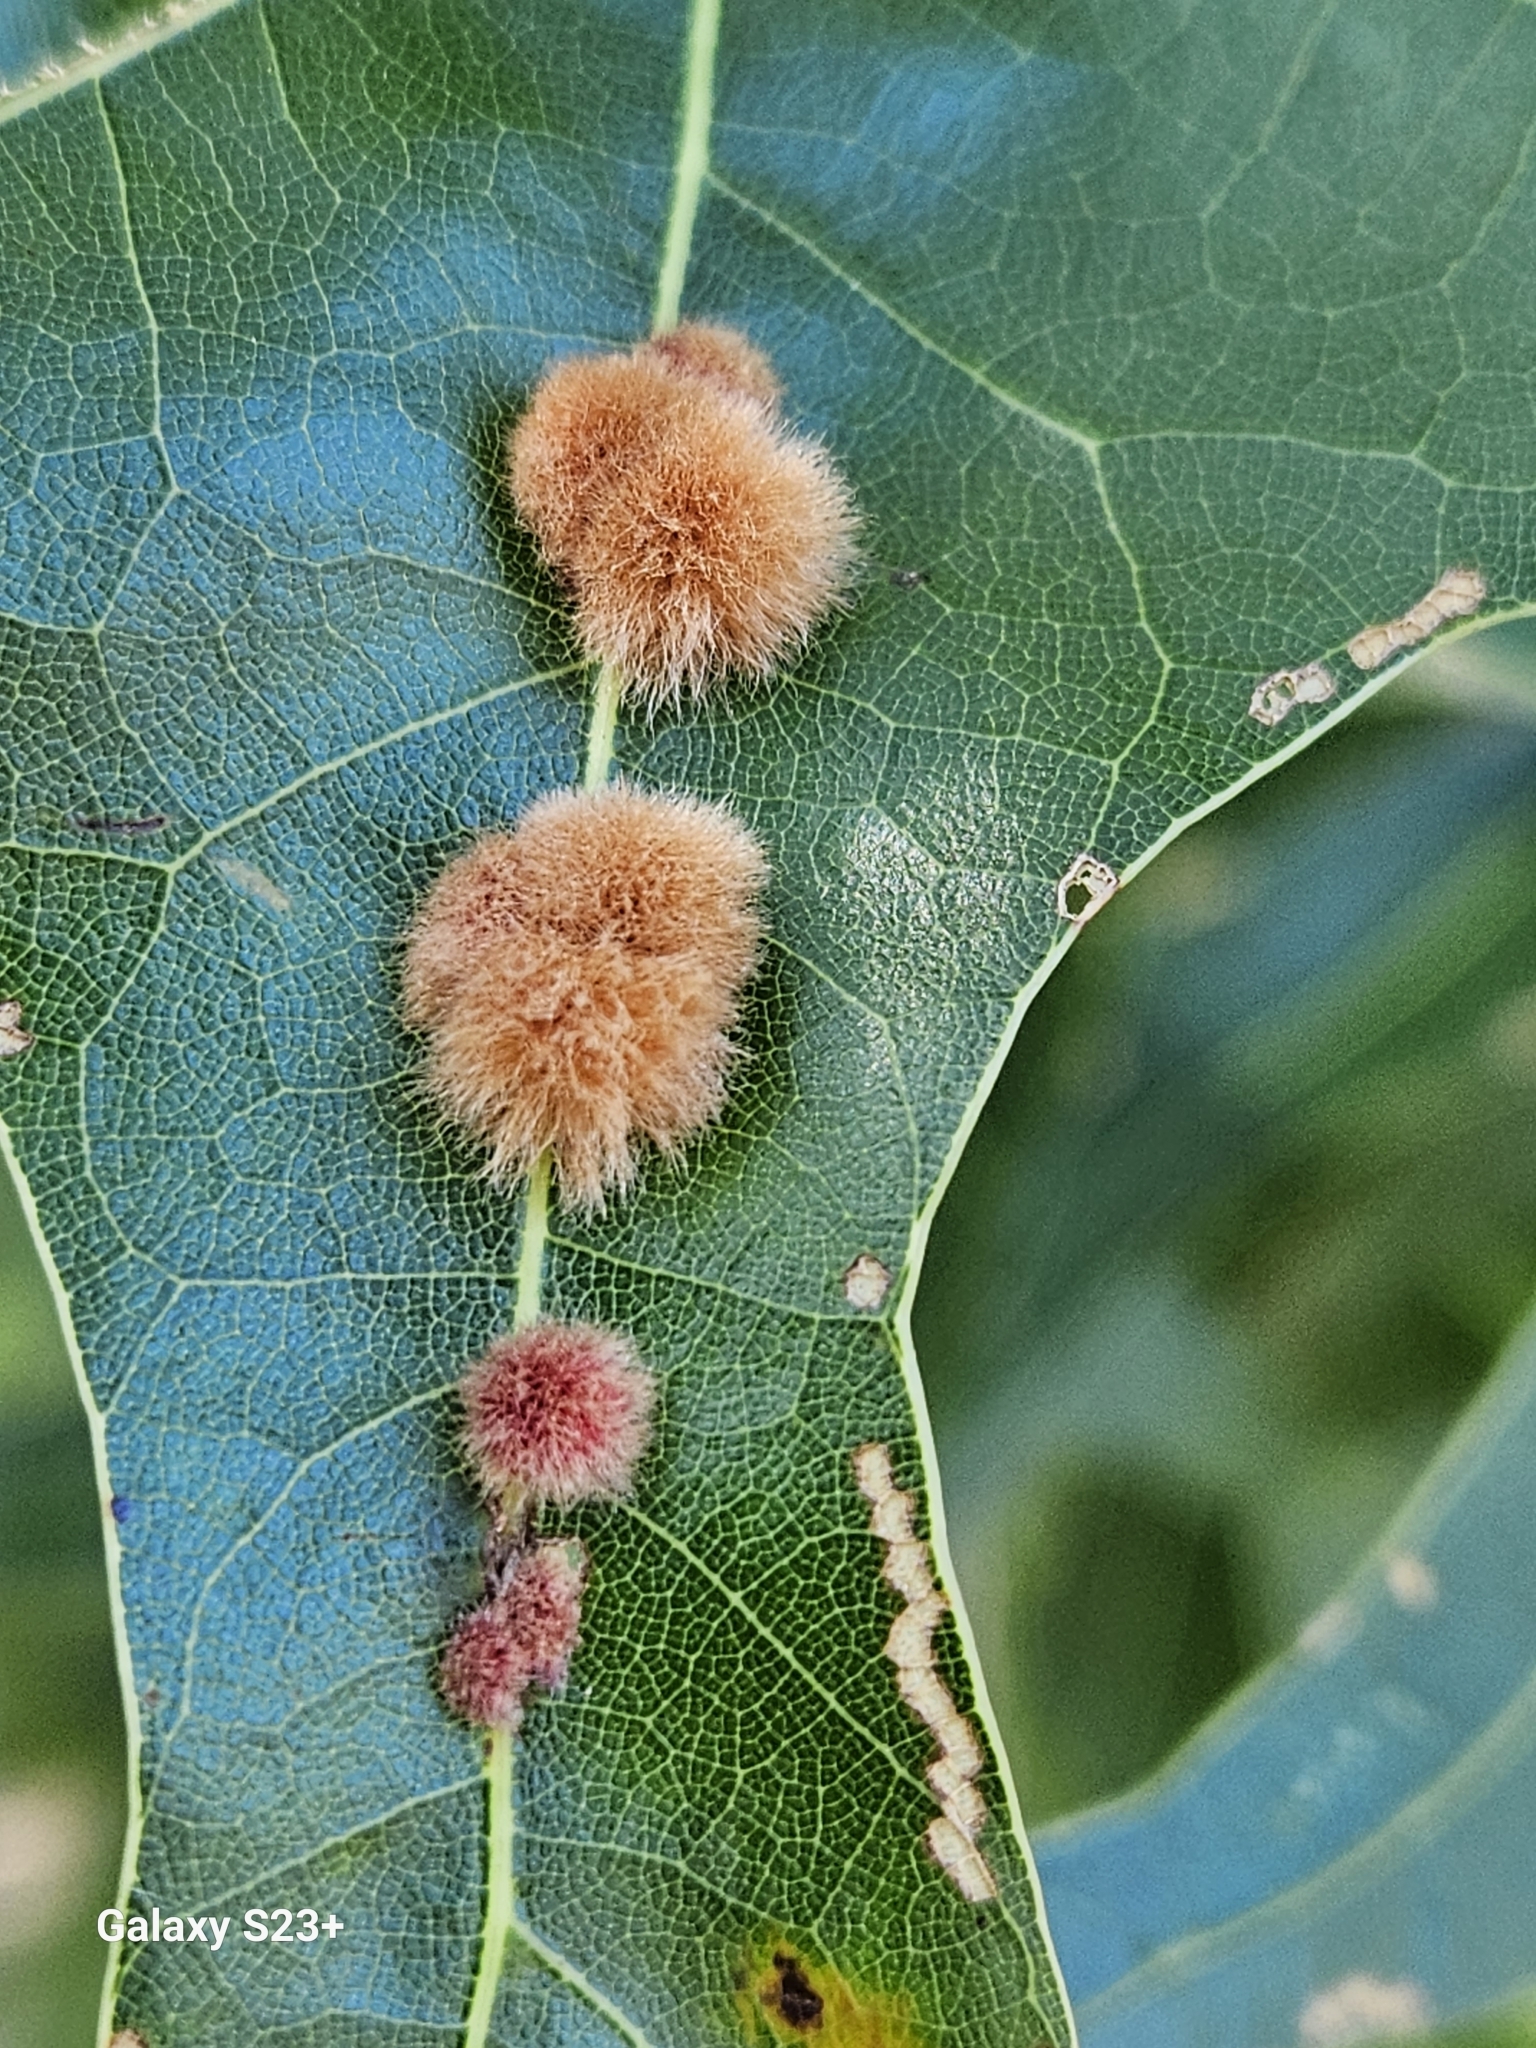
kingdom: Animalia
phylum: Arthropoda
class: Insecta
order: Hymenoptera
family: Cynipidae
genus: Callirhytis
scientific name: Callirhytis
